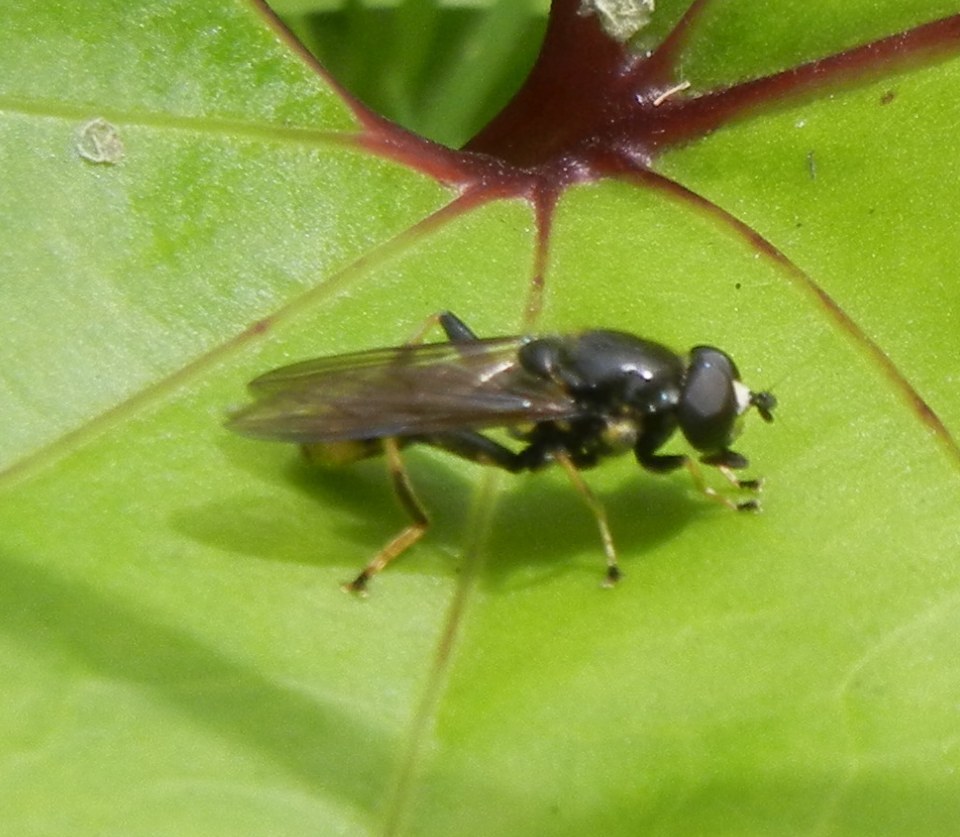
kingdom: Animalia
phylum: Arthropoda
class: Insecta
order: Diptera
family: Syrphidae
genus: Xylota
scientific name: Xylota sylvarum
